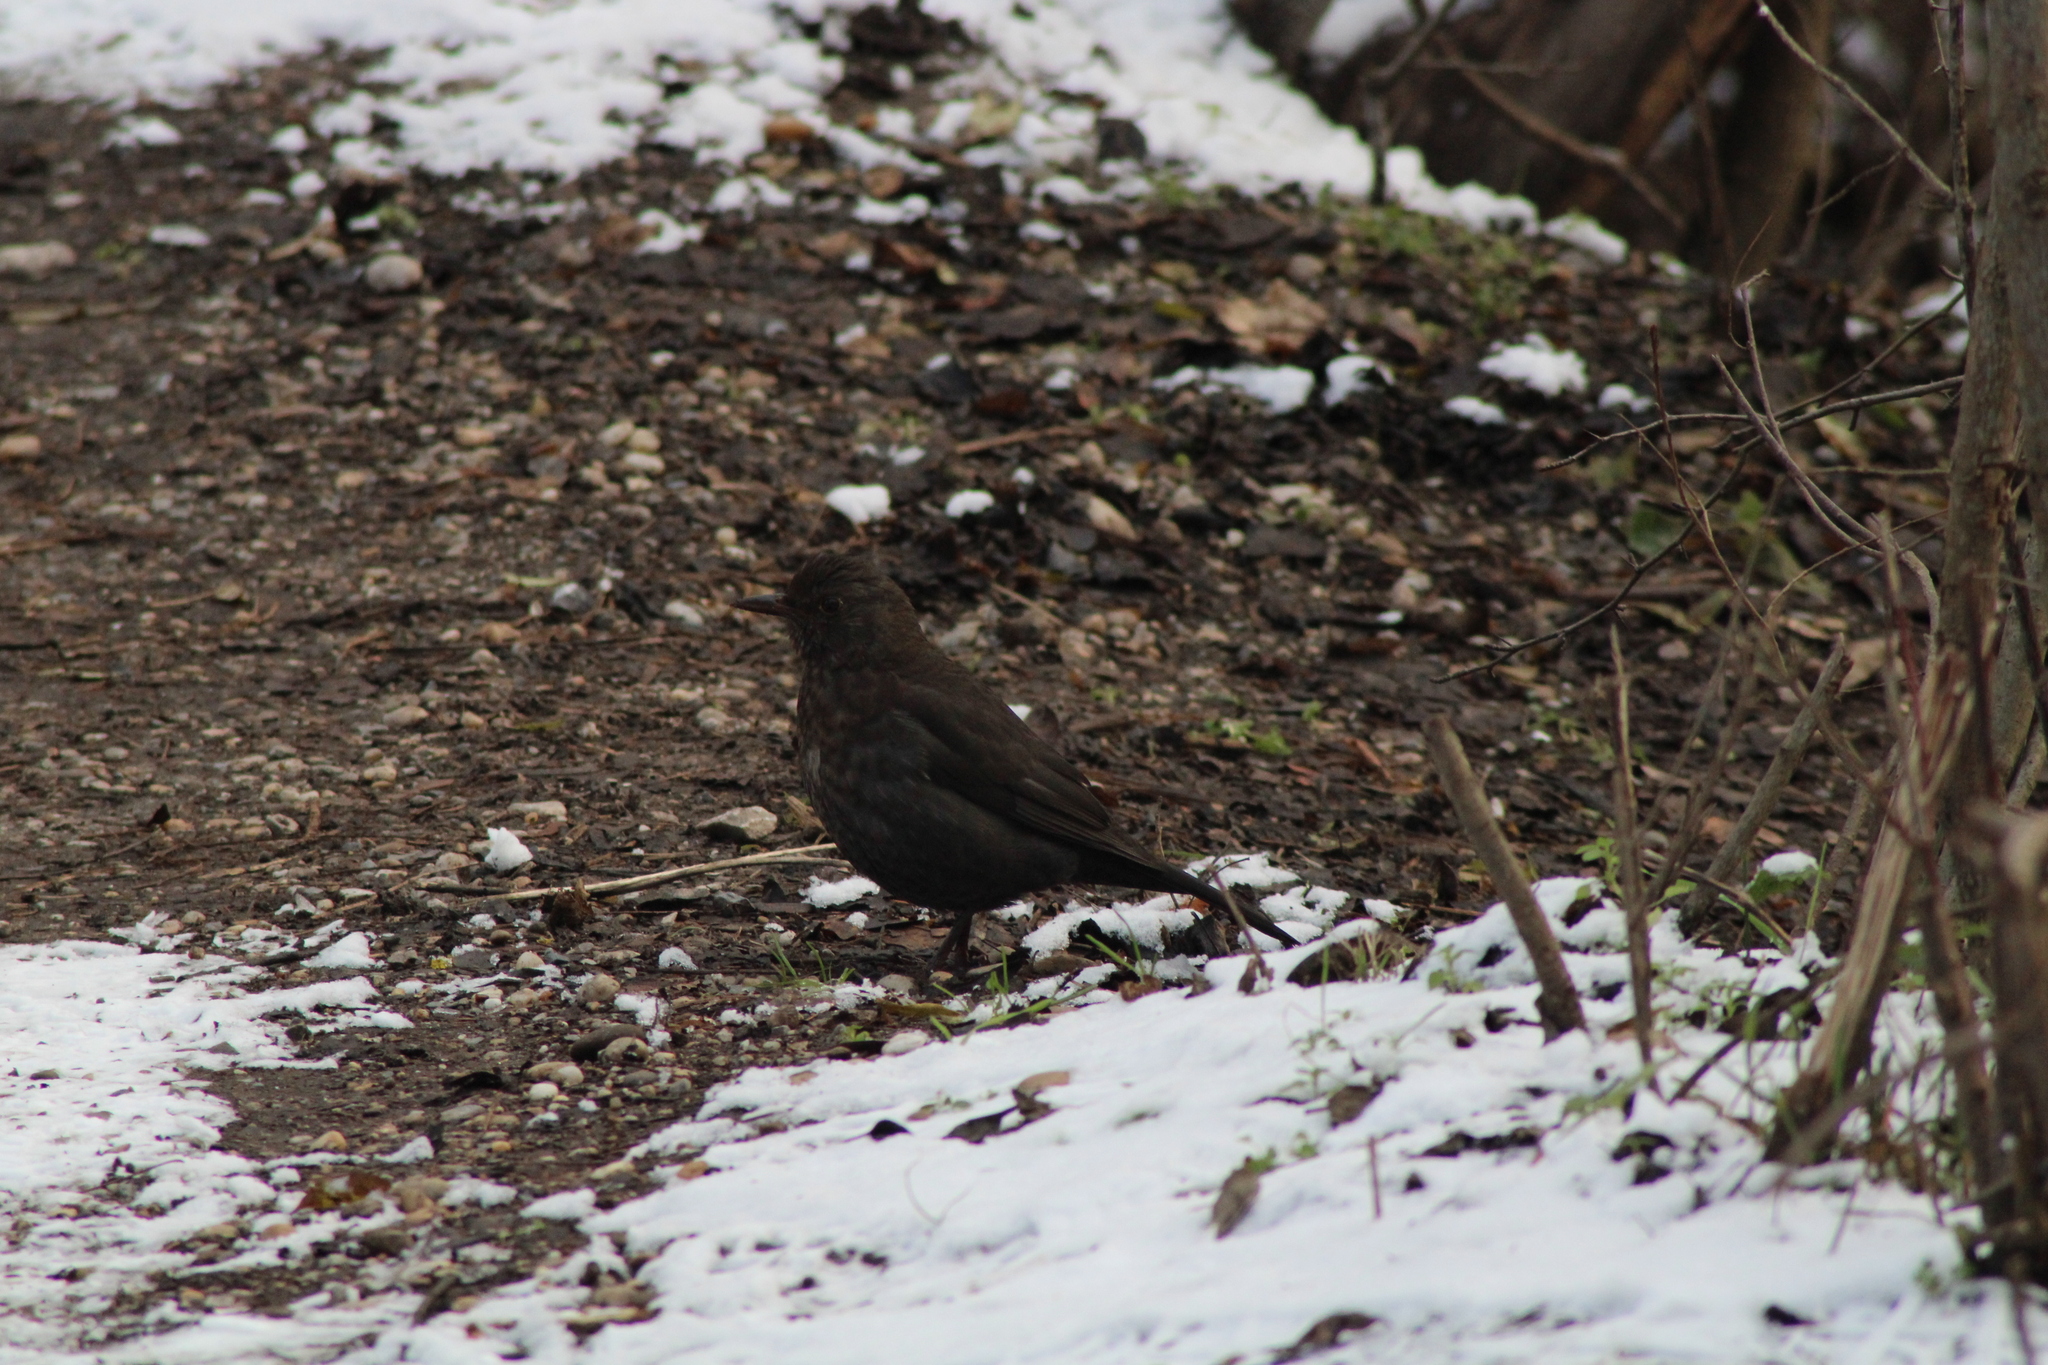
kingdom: Animalia
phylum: Chordata
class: Aves
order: Passeriformes
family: Turdidae
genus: Turdus
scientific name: Turdus merula
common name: Common blackbird
